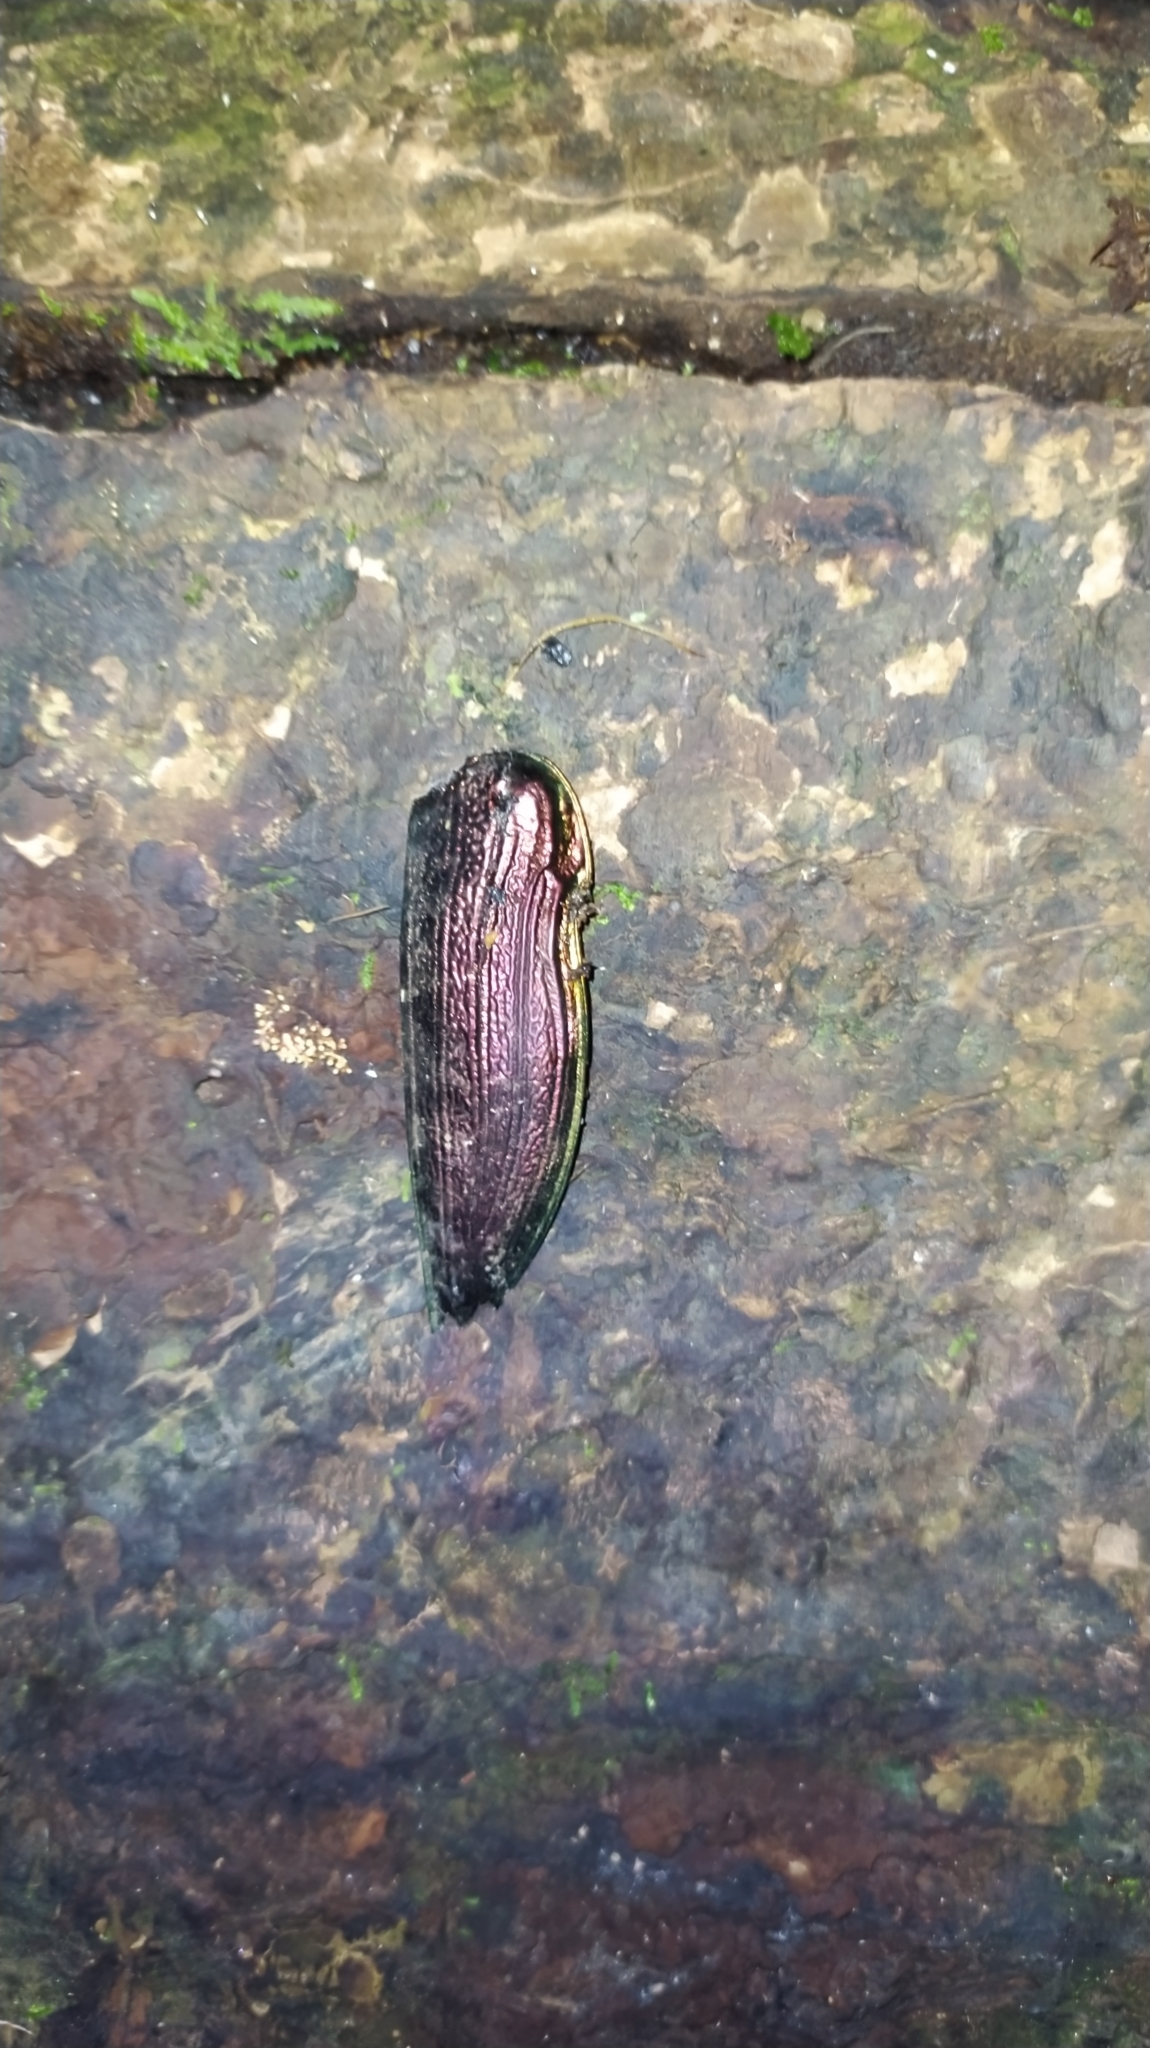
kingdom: Animalia
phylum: Arthropoda
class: Insecta
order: Coleoptera
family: Buprestidae
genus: Euchroma
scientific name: Euchroma giganteum
